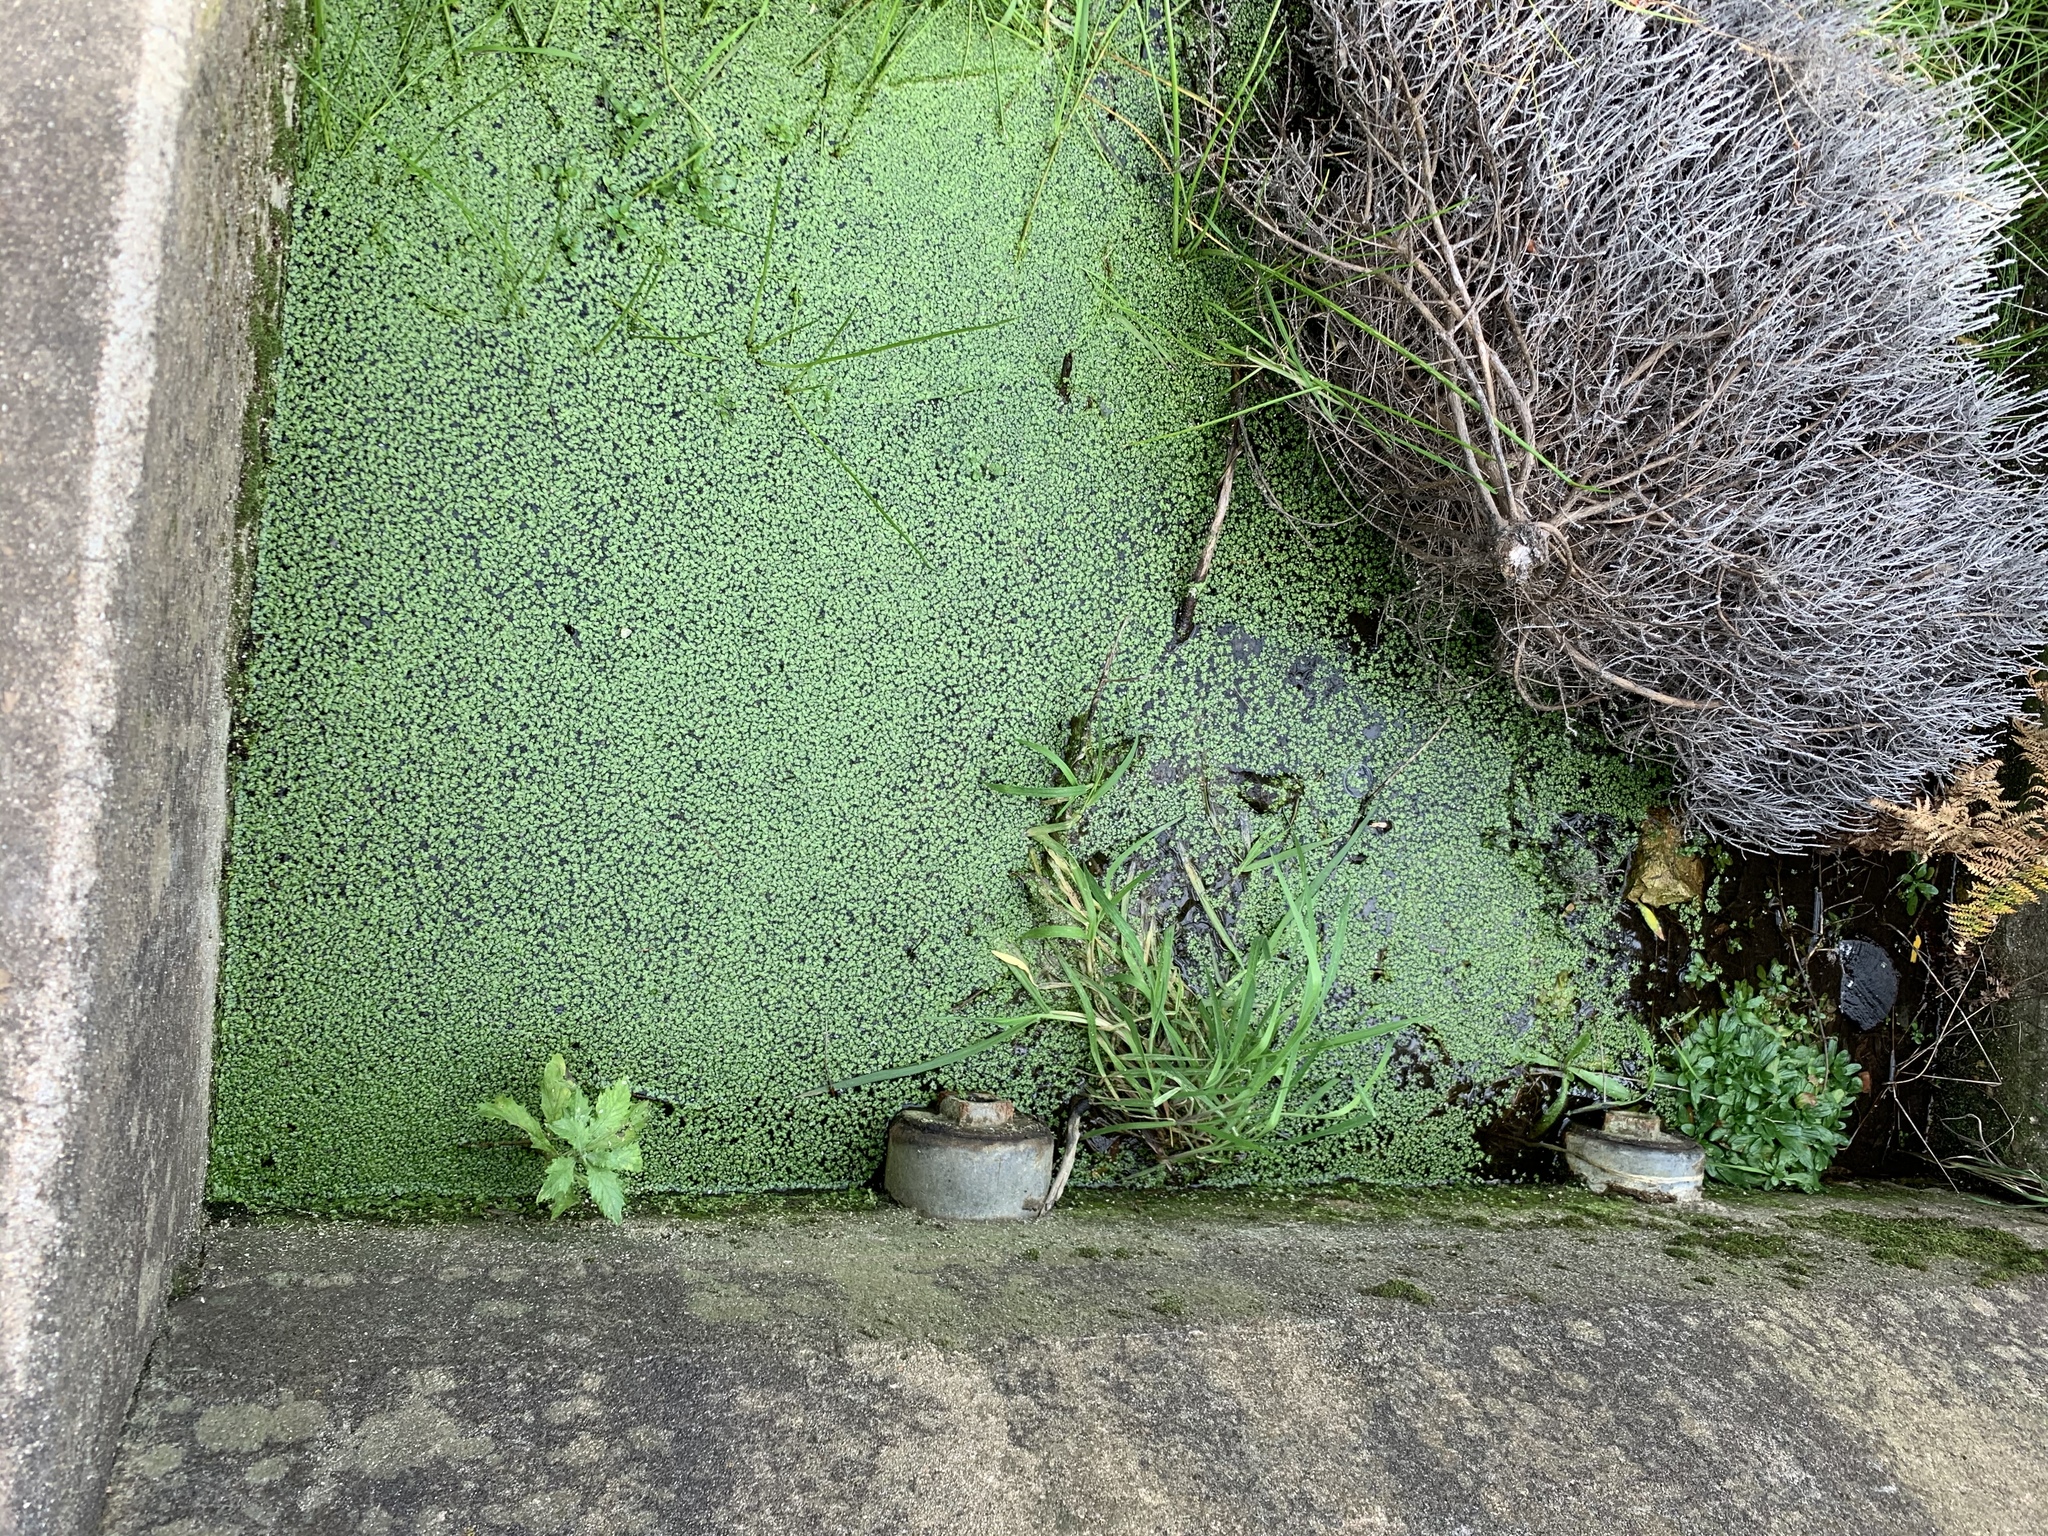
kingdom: Plantae
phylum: Tracheophyta
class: Liliopsida
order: Alismatales
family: Araceae
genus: Lemna
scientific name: Lemna minor
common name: Common duckweed
